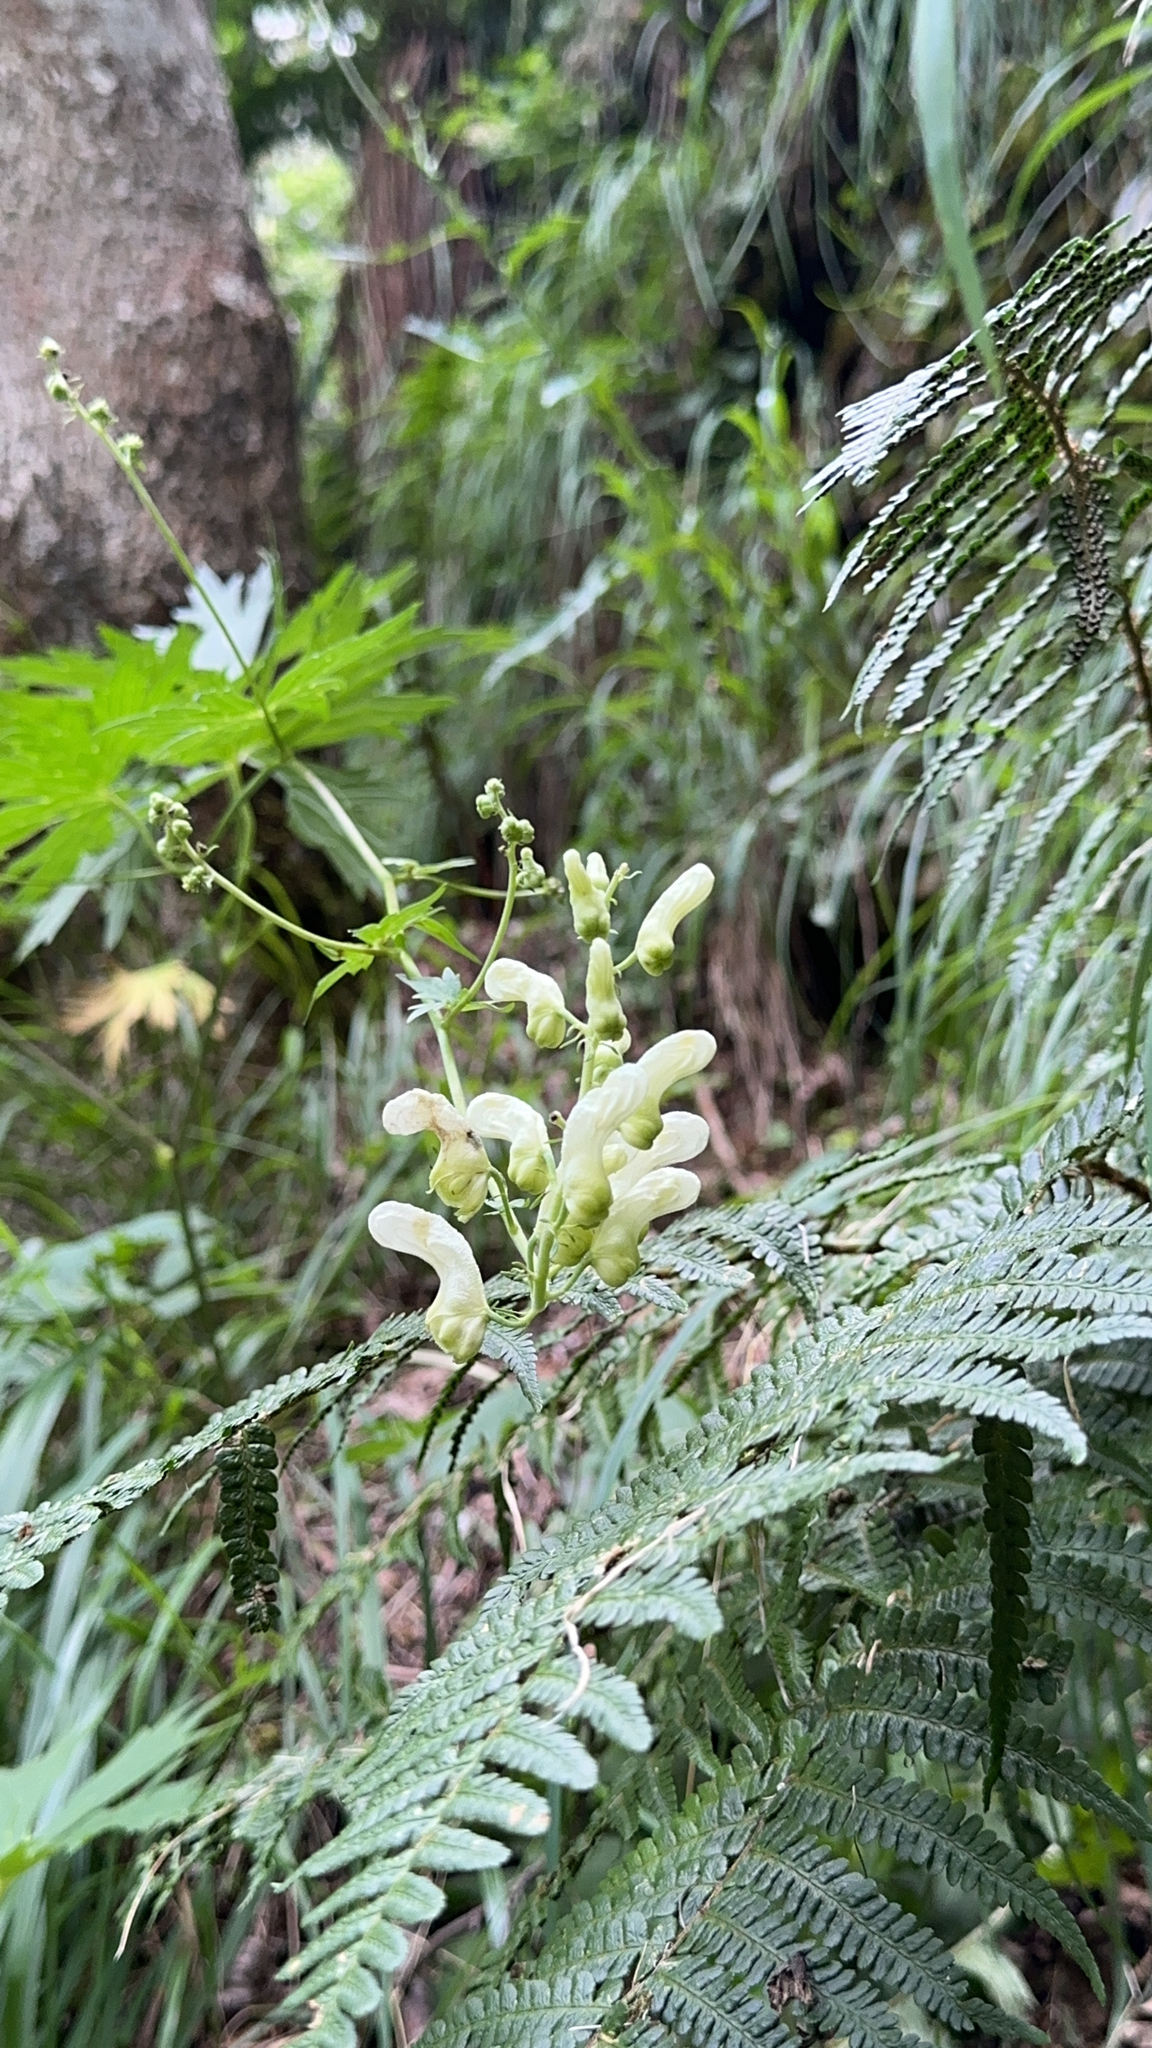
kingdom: Plantae
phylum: Tracheophyta
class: Magnoliopsida
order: Ranunculales
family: Ranunculaceae
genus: Aconitum
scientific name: Aconitum lycoctonum
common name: Wolf's-bane
